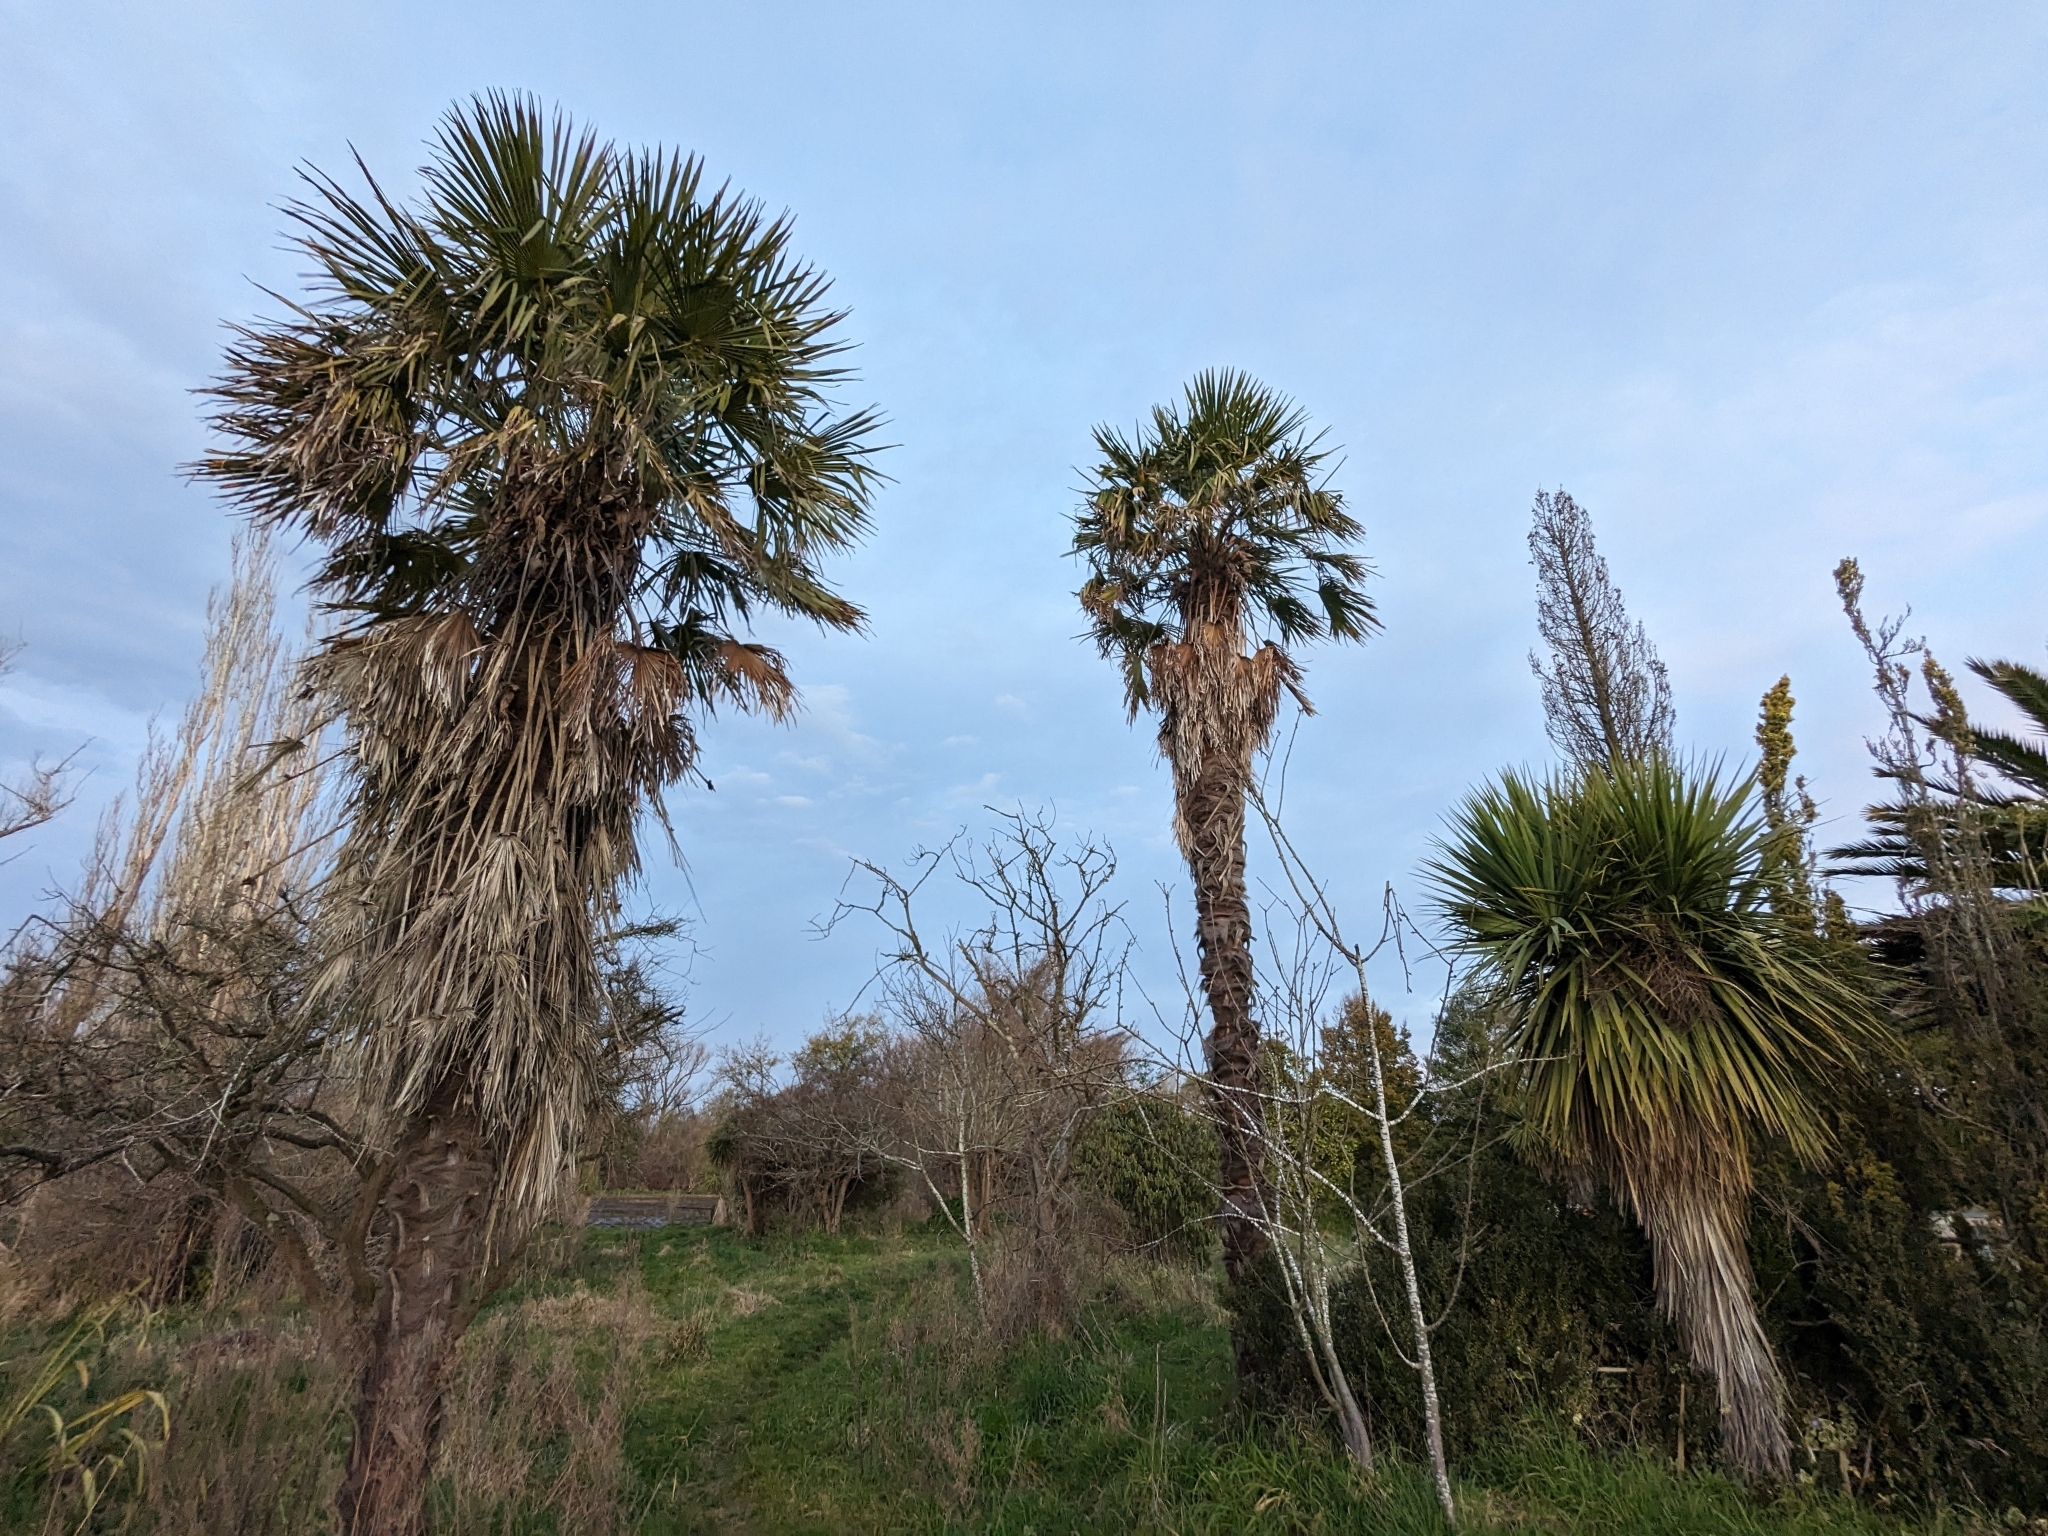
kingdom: Plantae
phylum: Tracheophyta
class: Liliopsida
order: Arecales
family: Arecaceae
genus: Trachycarpus
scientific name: Trachycarpus fortunei
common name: Chusan palm
